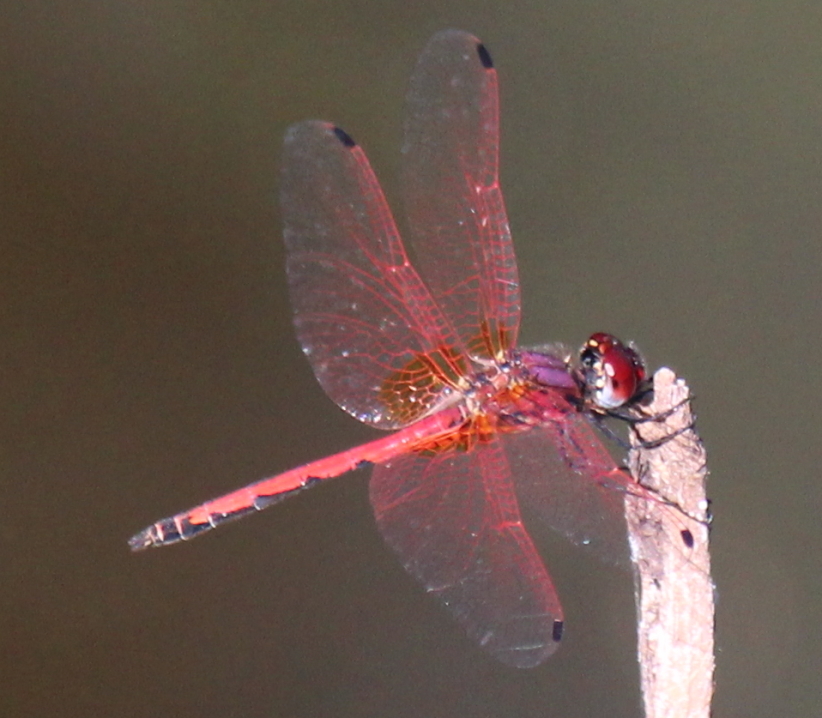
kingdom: Animalia
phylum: Arthropoda
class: Insecta
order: Odonata
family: Libellulidae
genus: Trithemis
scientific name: Trithemis arteriosa
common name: Red-veined dropwing
